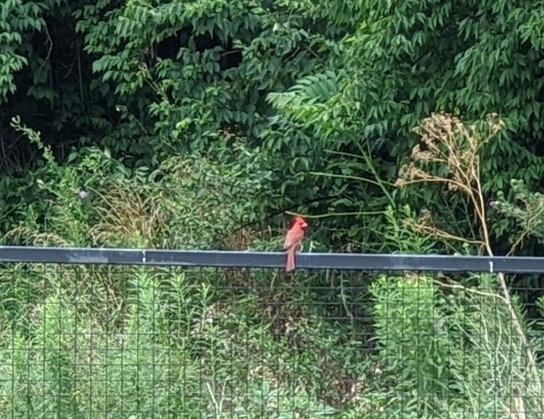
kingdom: Animalia
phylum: Chordata
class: Aves
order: Passeriformes
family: Cardinalidae
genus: Cardinalis
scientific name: Cardinalis cardinalis
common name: Northern cardinal
